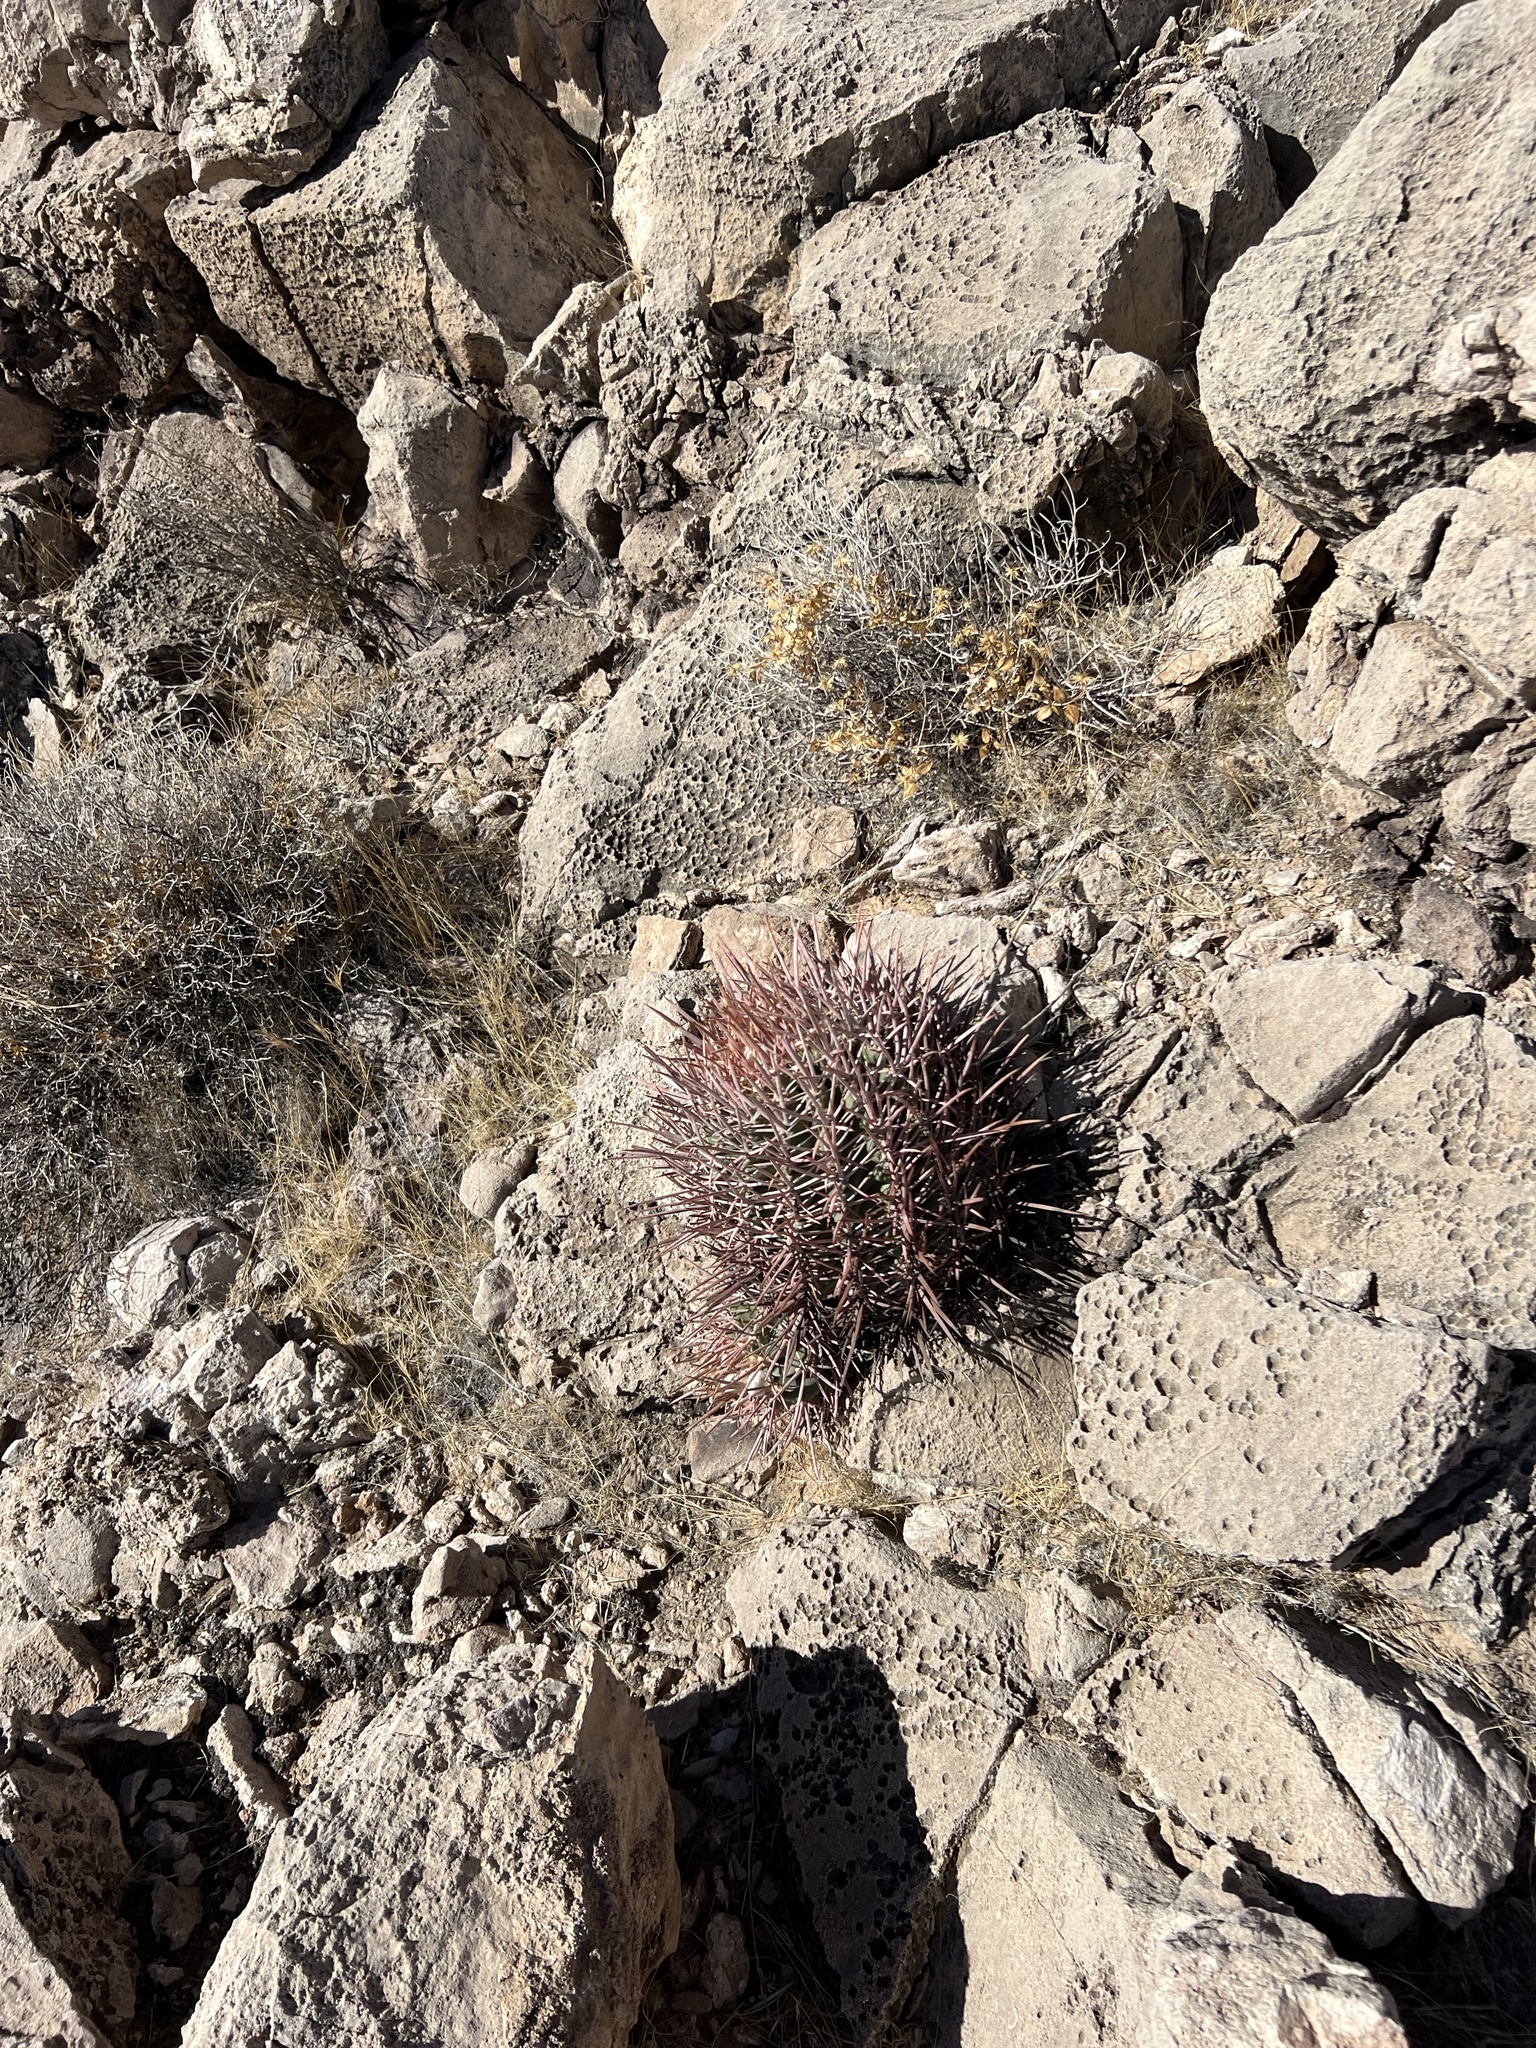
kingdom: Plantae
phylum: Tracheophyta
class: Magnoliopsida
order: Caryophyllales
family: Cactaceae
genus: Echinocactus
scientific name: Echinocactus polycephalus
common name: Cottontop cactus
